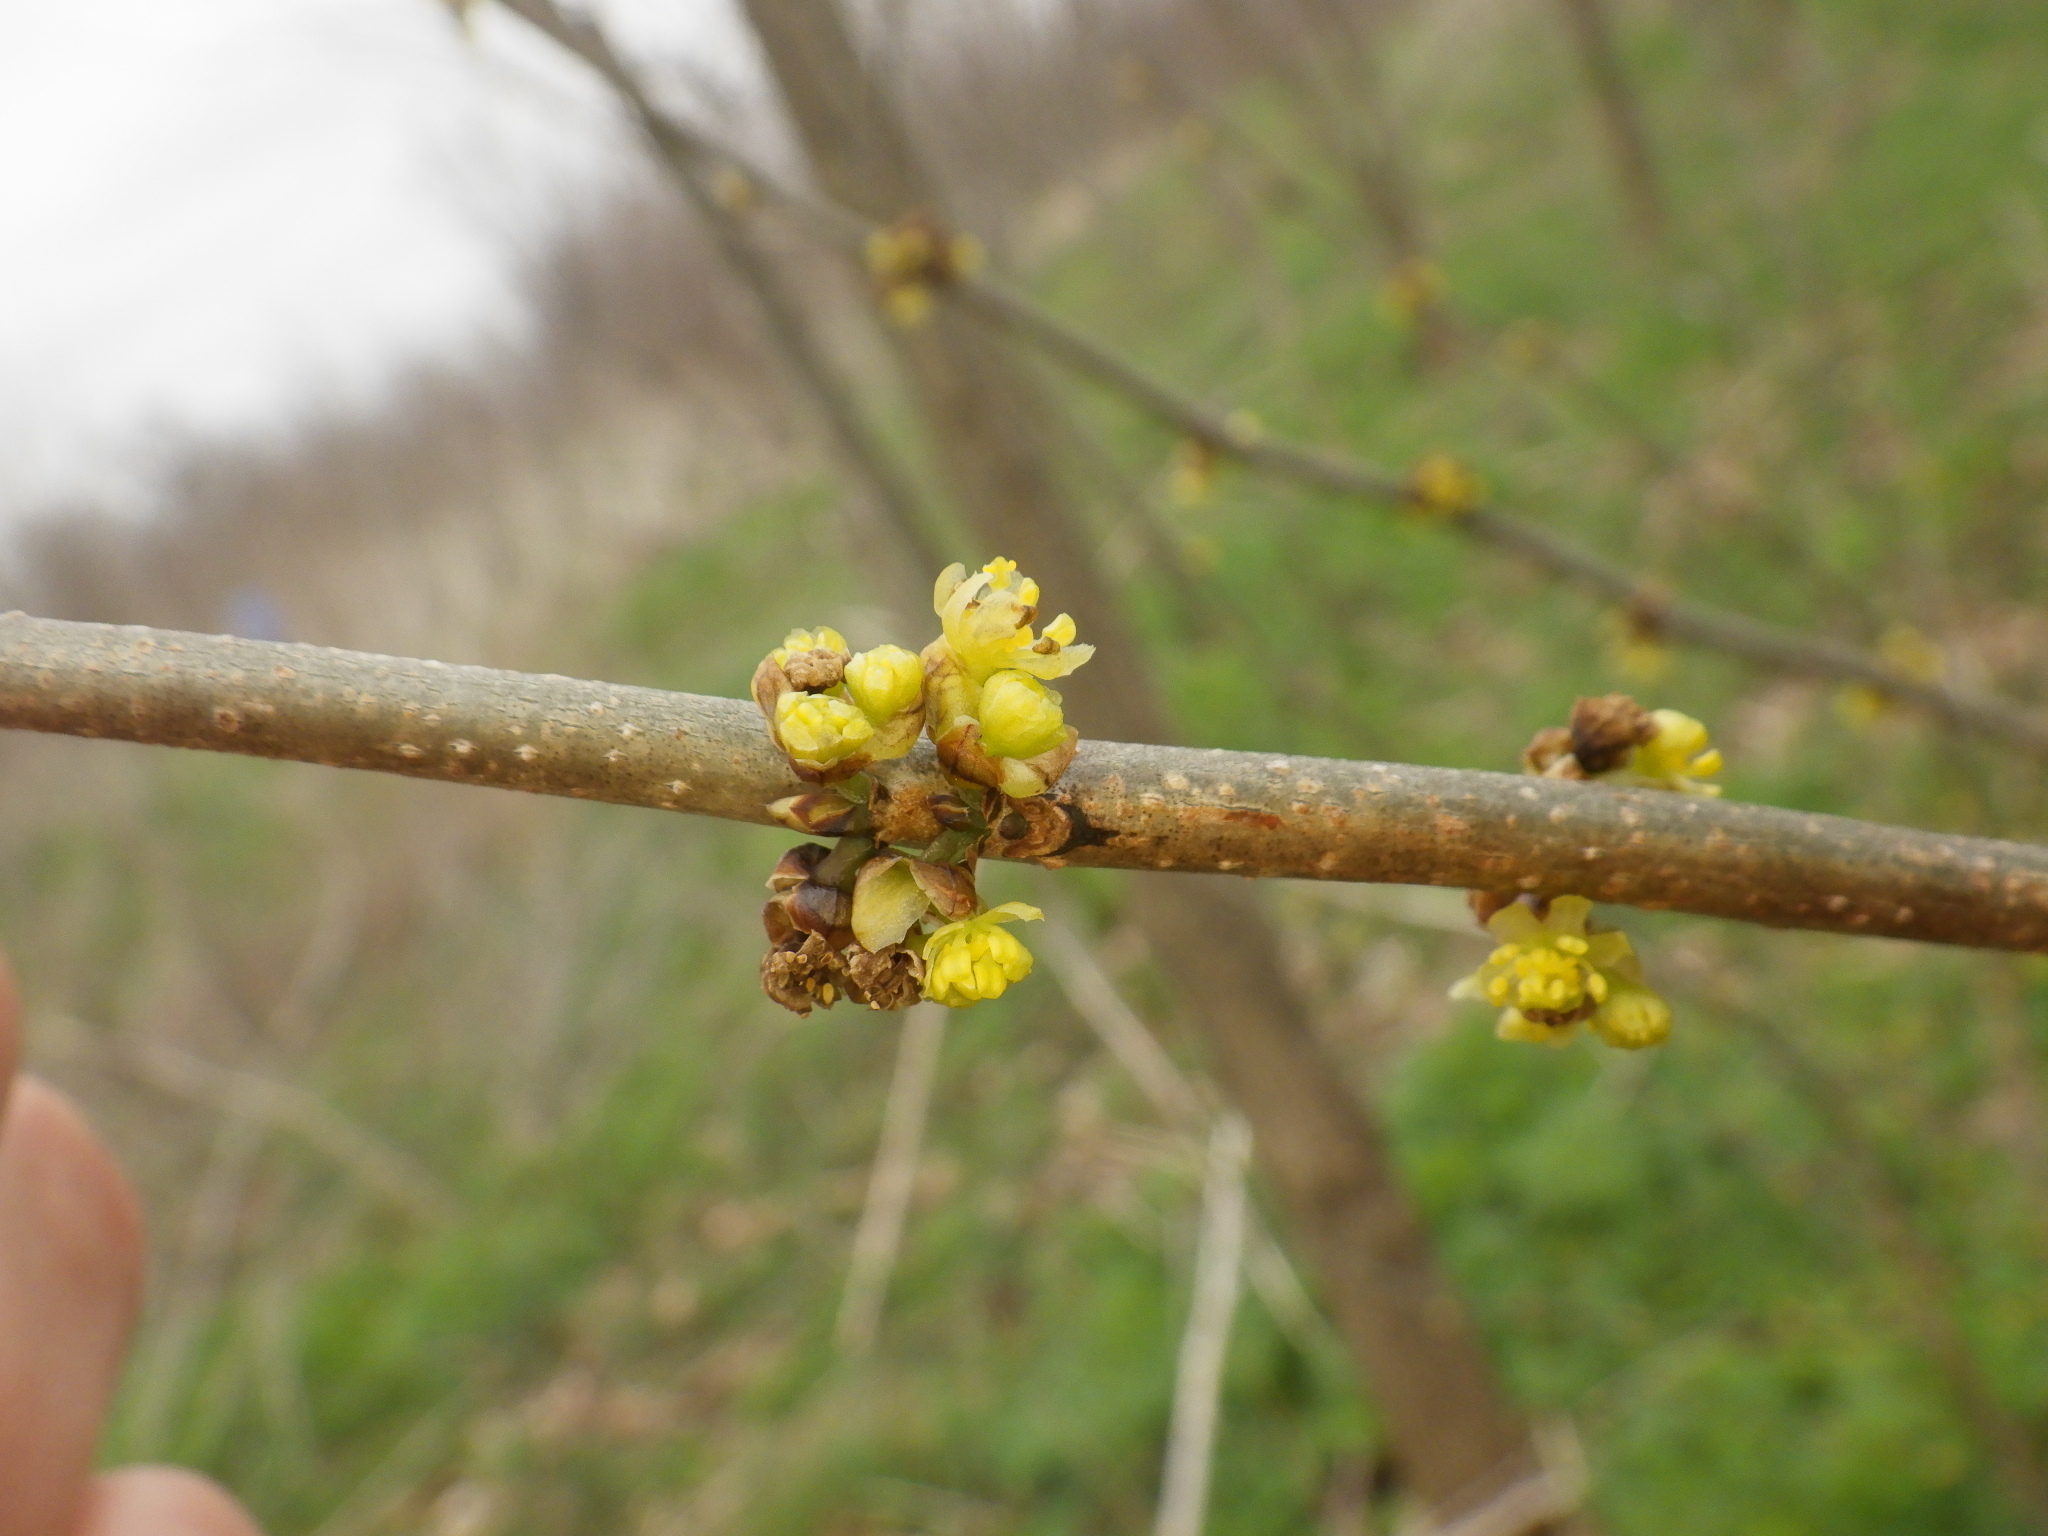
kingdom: Plantae
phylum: Tracheophyta
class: Magnoliopsida
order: Laurales
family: Lauraceae
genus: Lindera
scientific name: Lindera benzoin
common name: Spicebush
